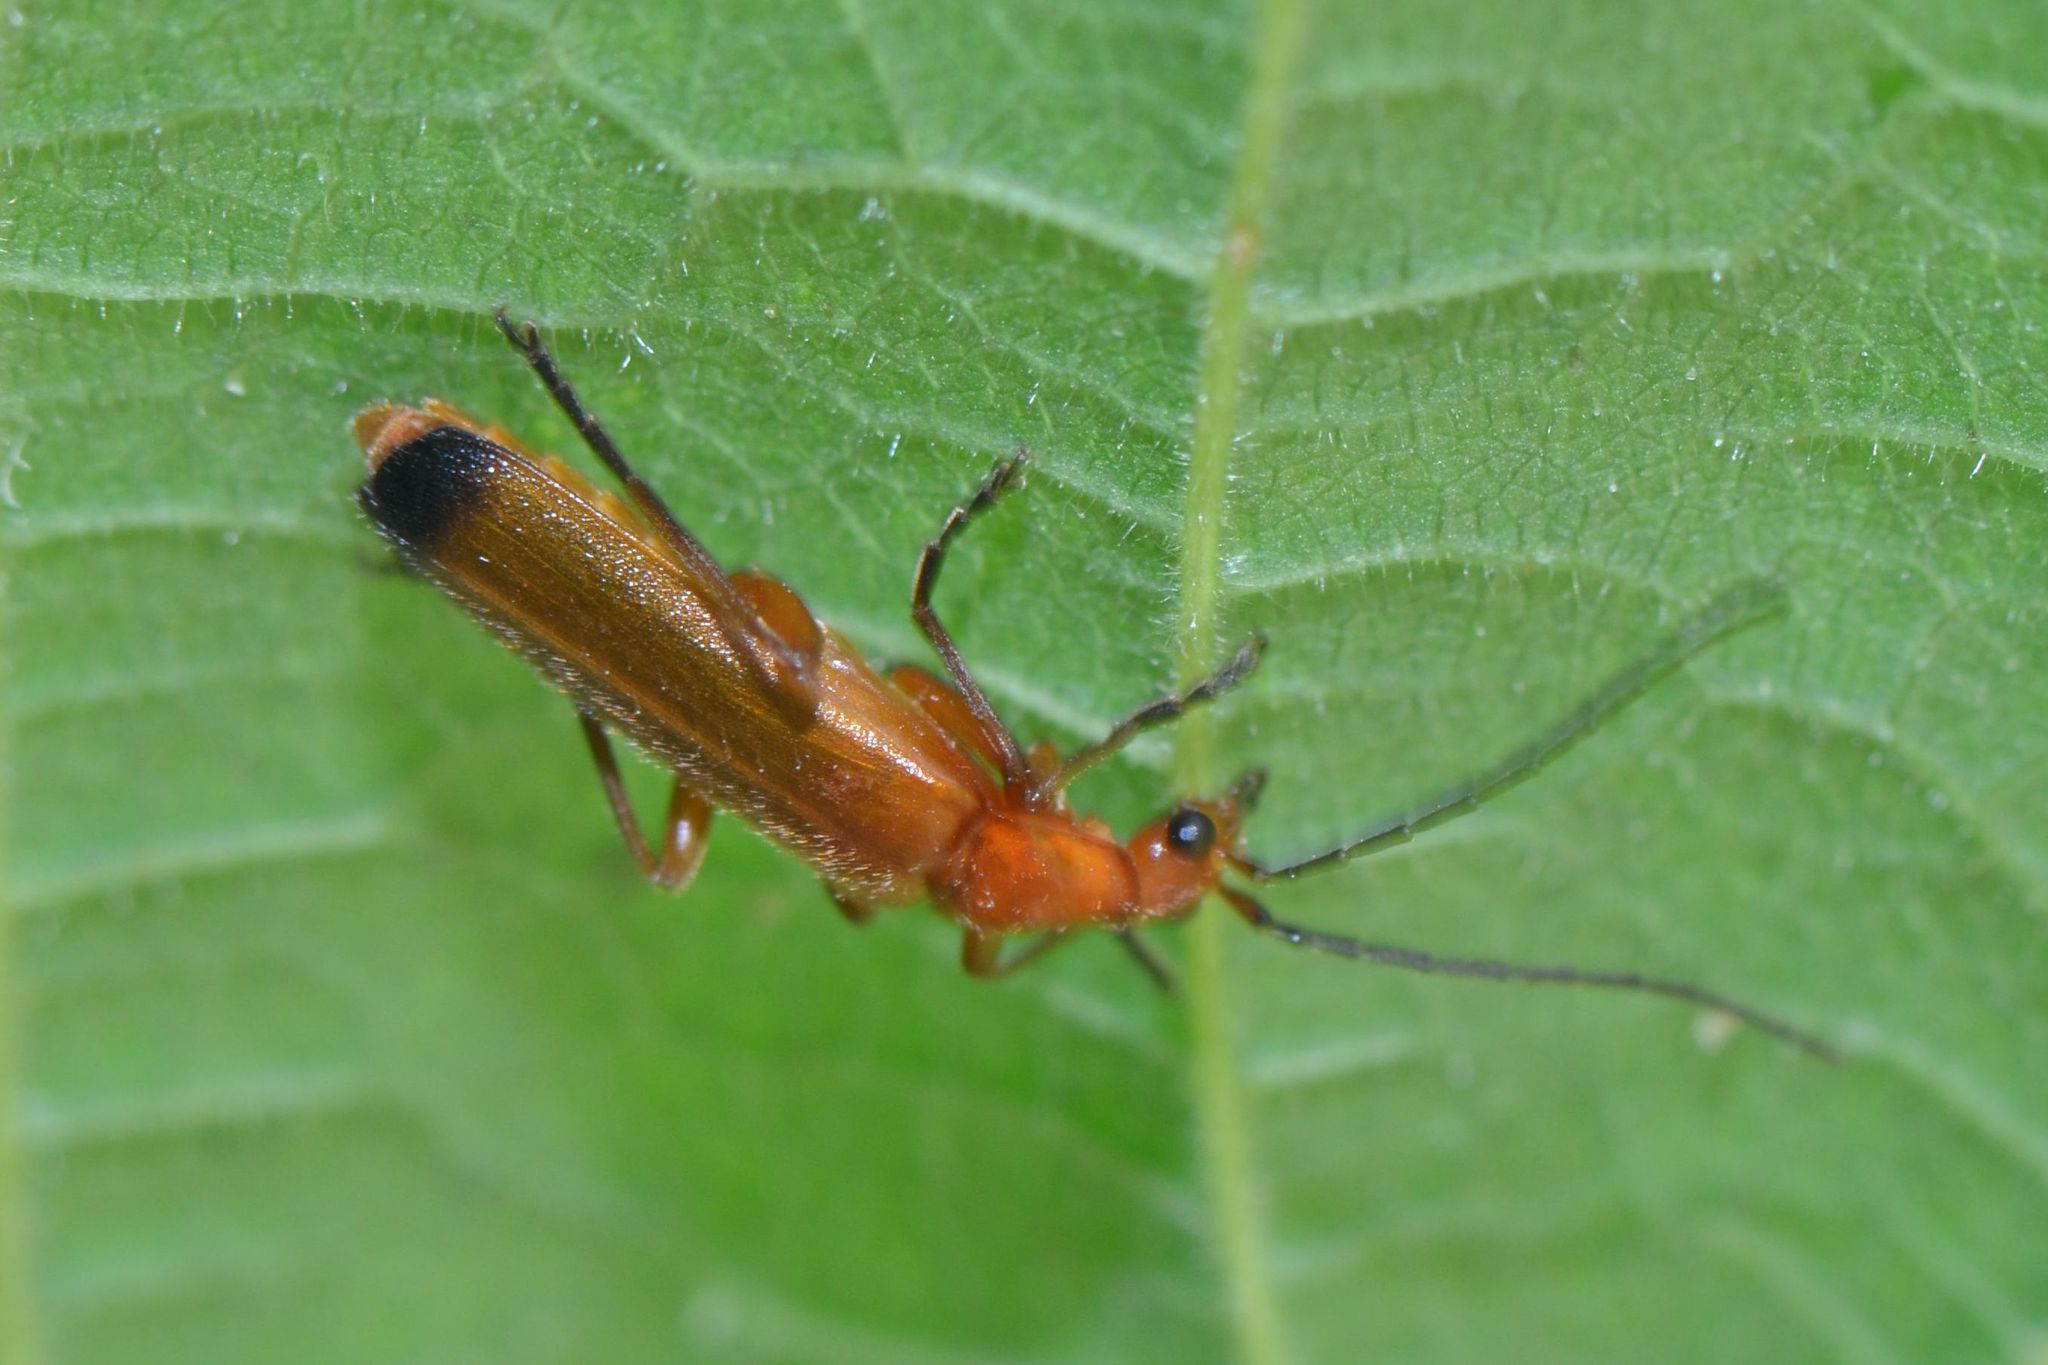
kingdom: Animalia
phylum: Arthropoda
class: Insecta
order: Coleoptera
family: Cantharidae
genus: Rhagonycha
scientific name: Rhagonycha fulva
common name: Common red soldier beetle
